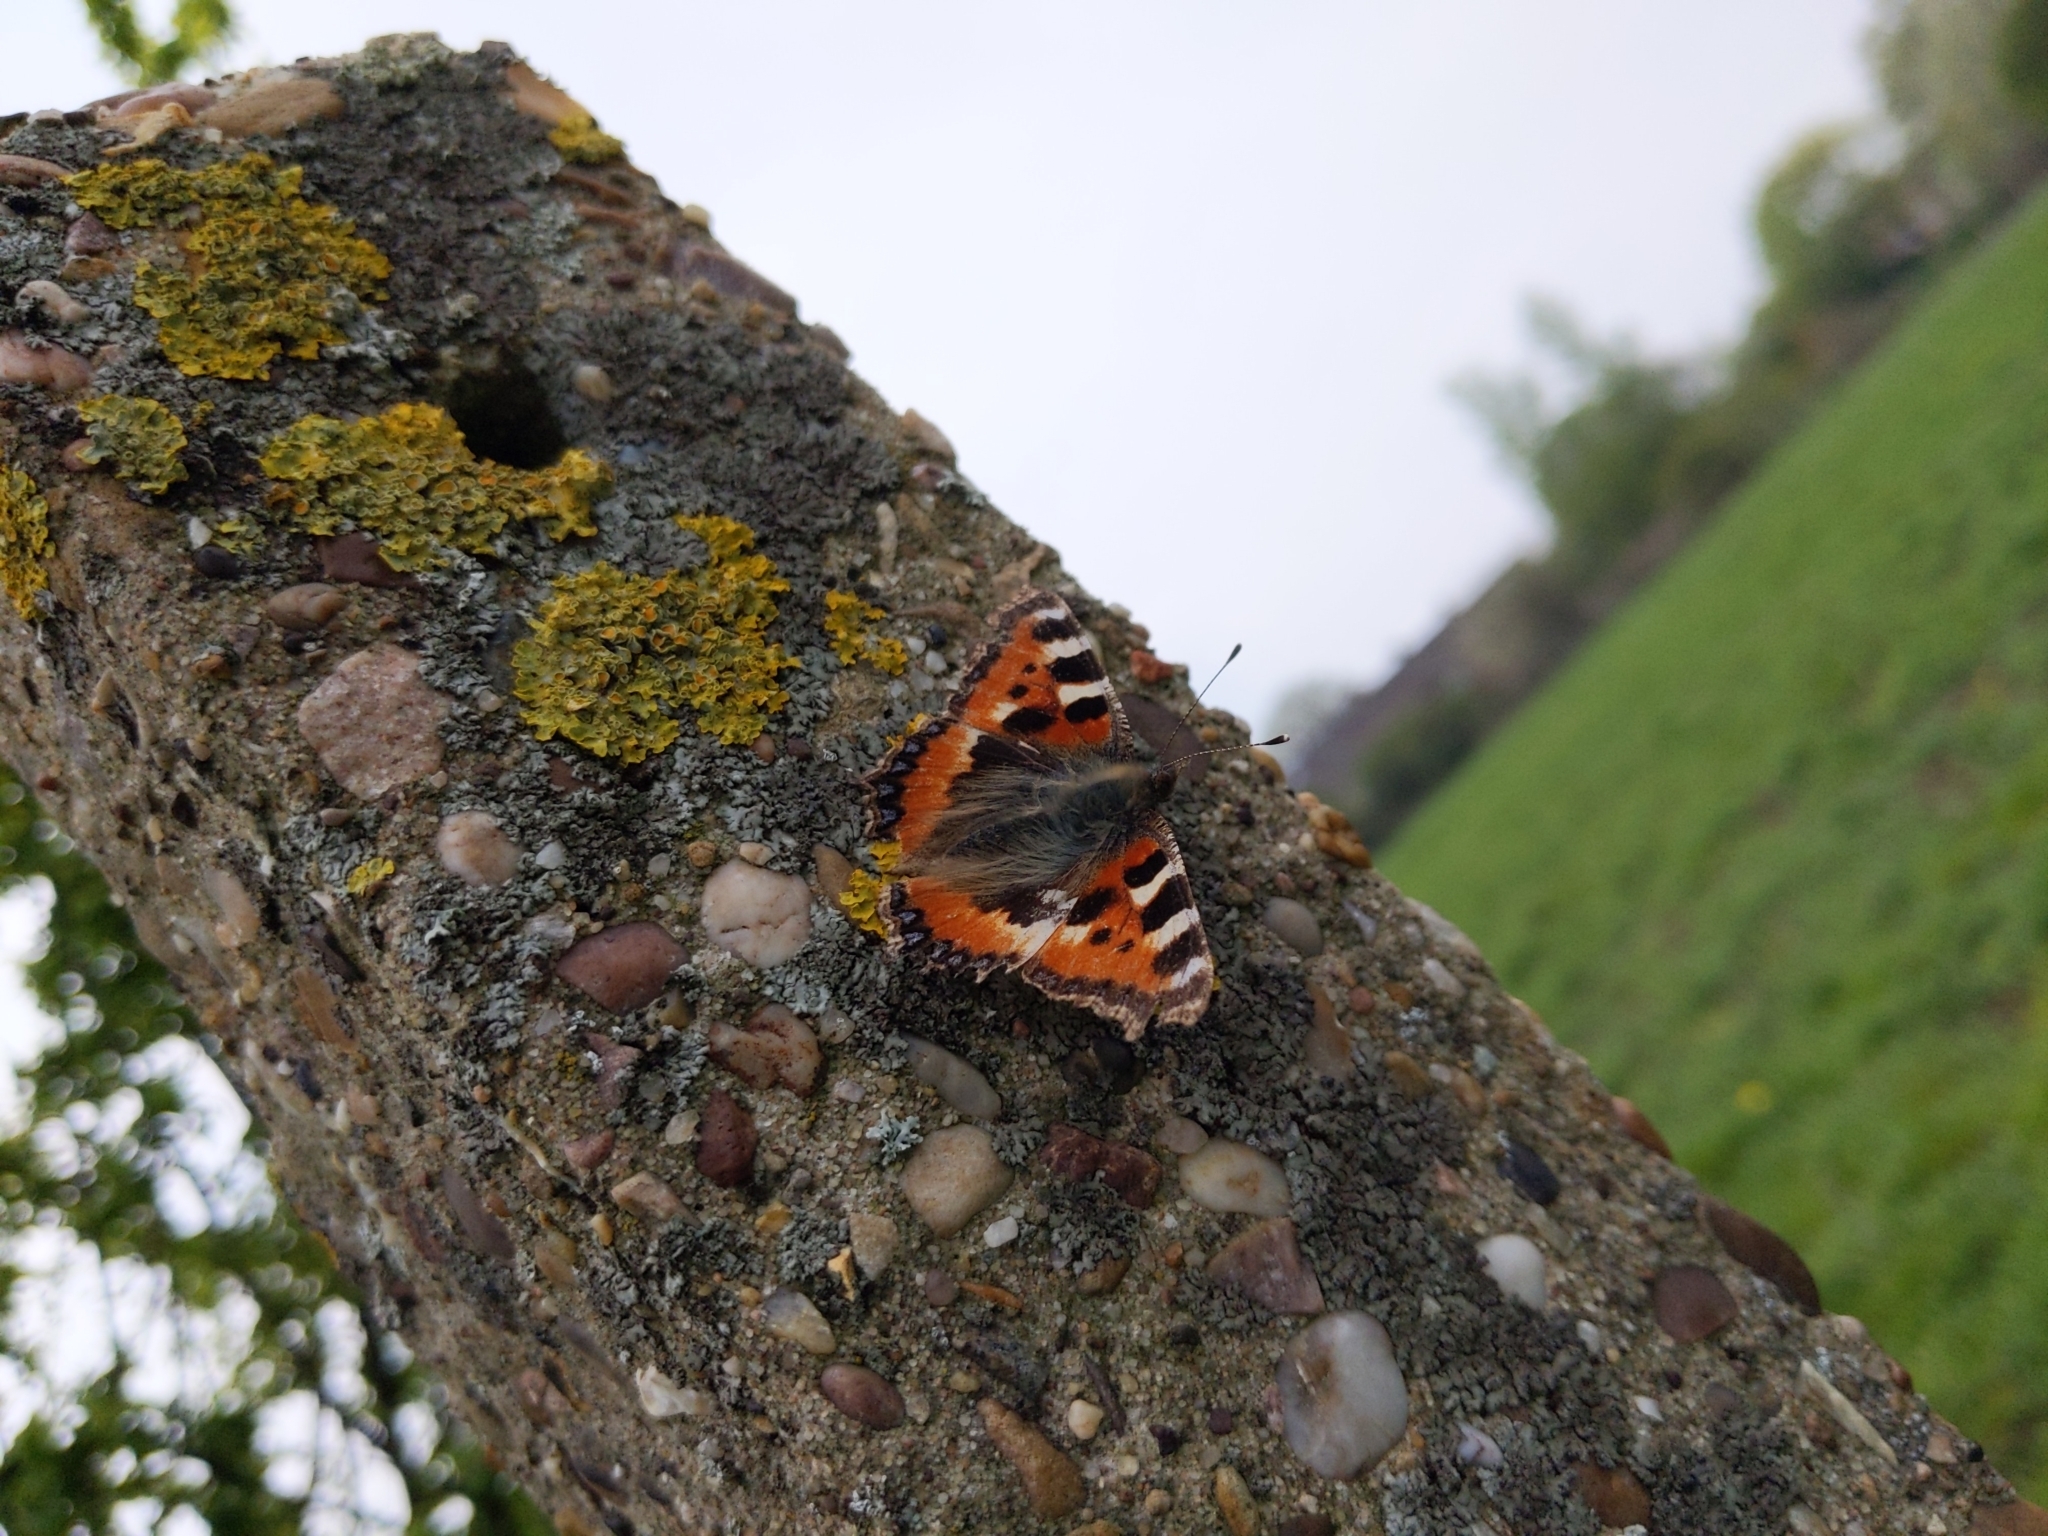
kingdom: Animalia
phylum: Arthropoda
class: Insecta
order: Lepidoptera
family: Nymphalidae
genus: Aglais
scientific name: Aglais urticae
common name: Small tortoiseshell
